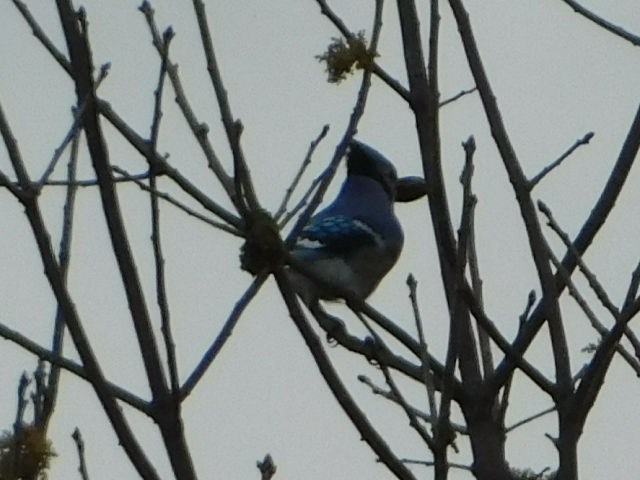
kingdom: Animalia
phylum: Chordata
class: Aves
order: Passeriformes
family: Corvidae
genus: Cyanocitta
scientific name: Cyanocitta cristata
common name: Blue jay
